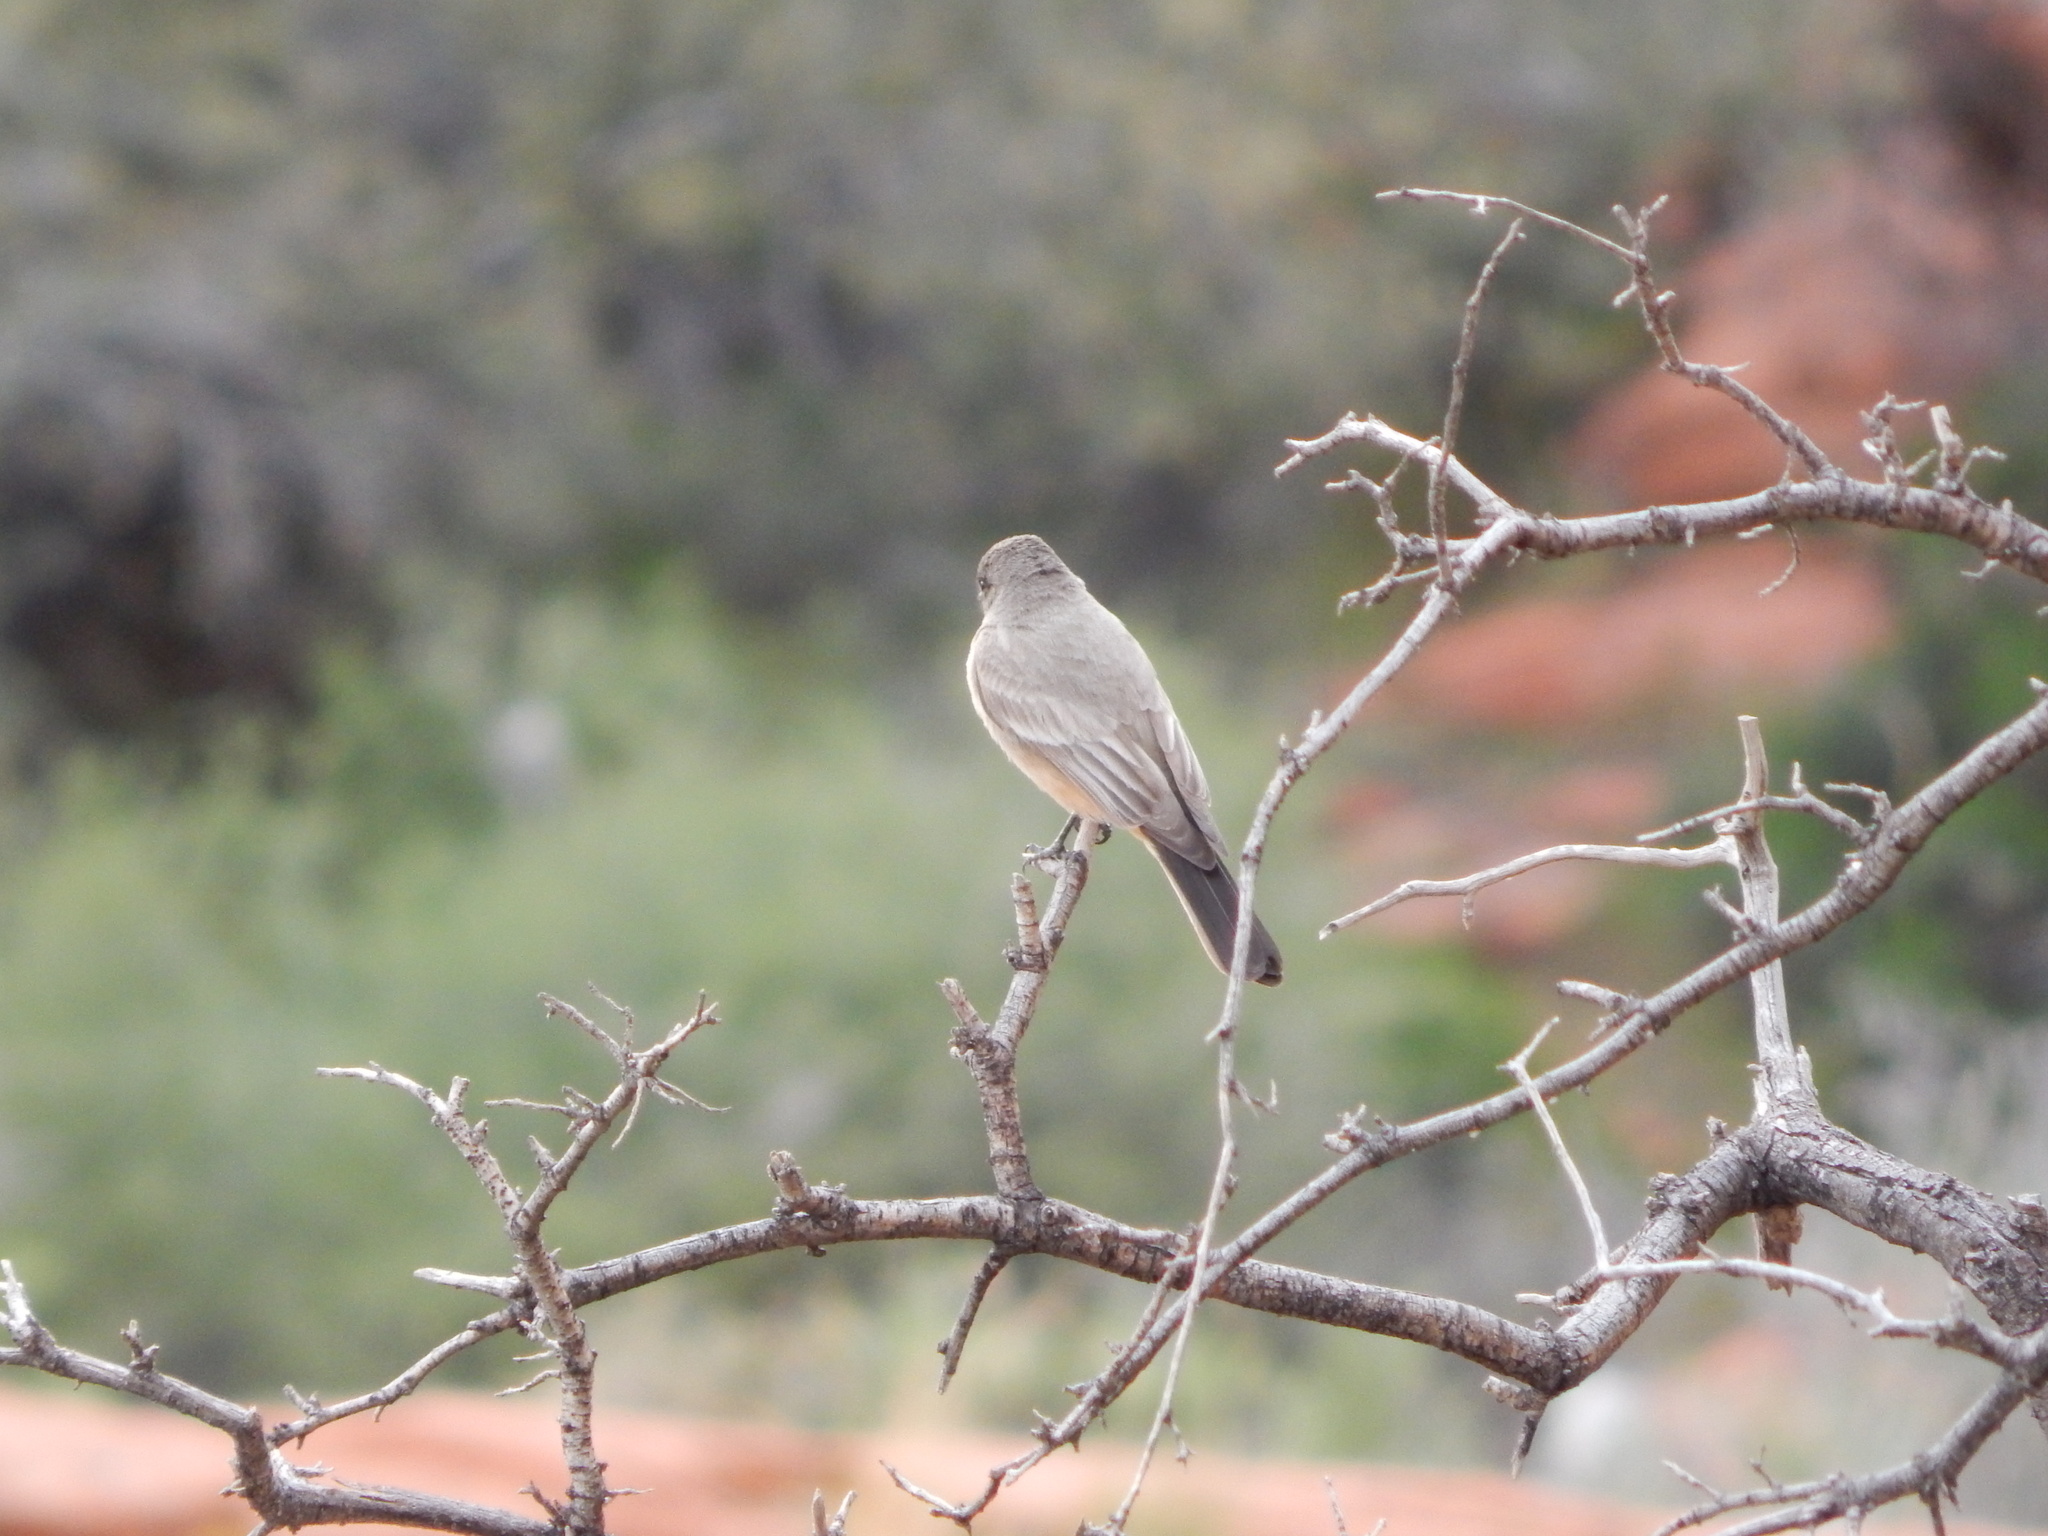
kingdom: Animalia
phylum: Chordata
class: Aves
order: Passeriformes
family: Tyrannidae
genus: Sayornis
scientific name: Sayornis saya
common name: Say's phoebe
